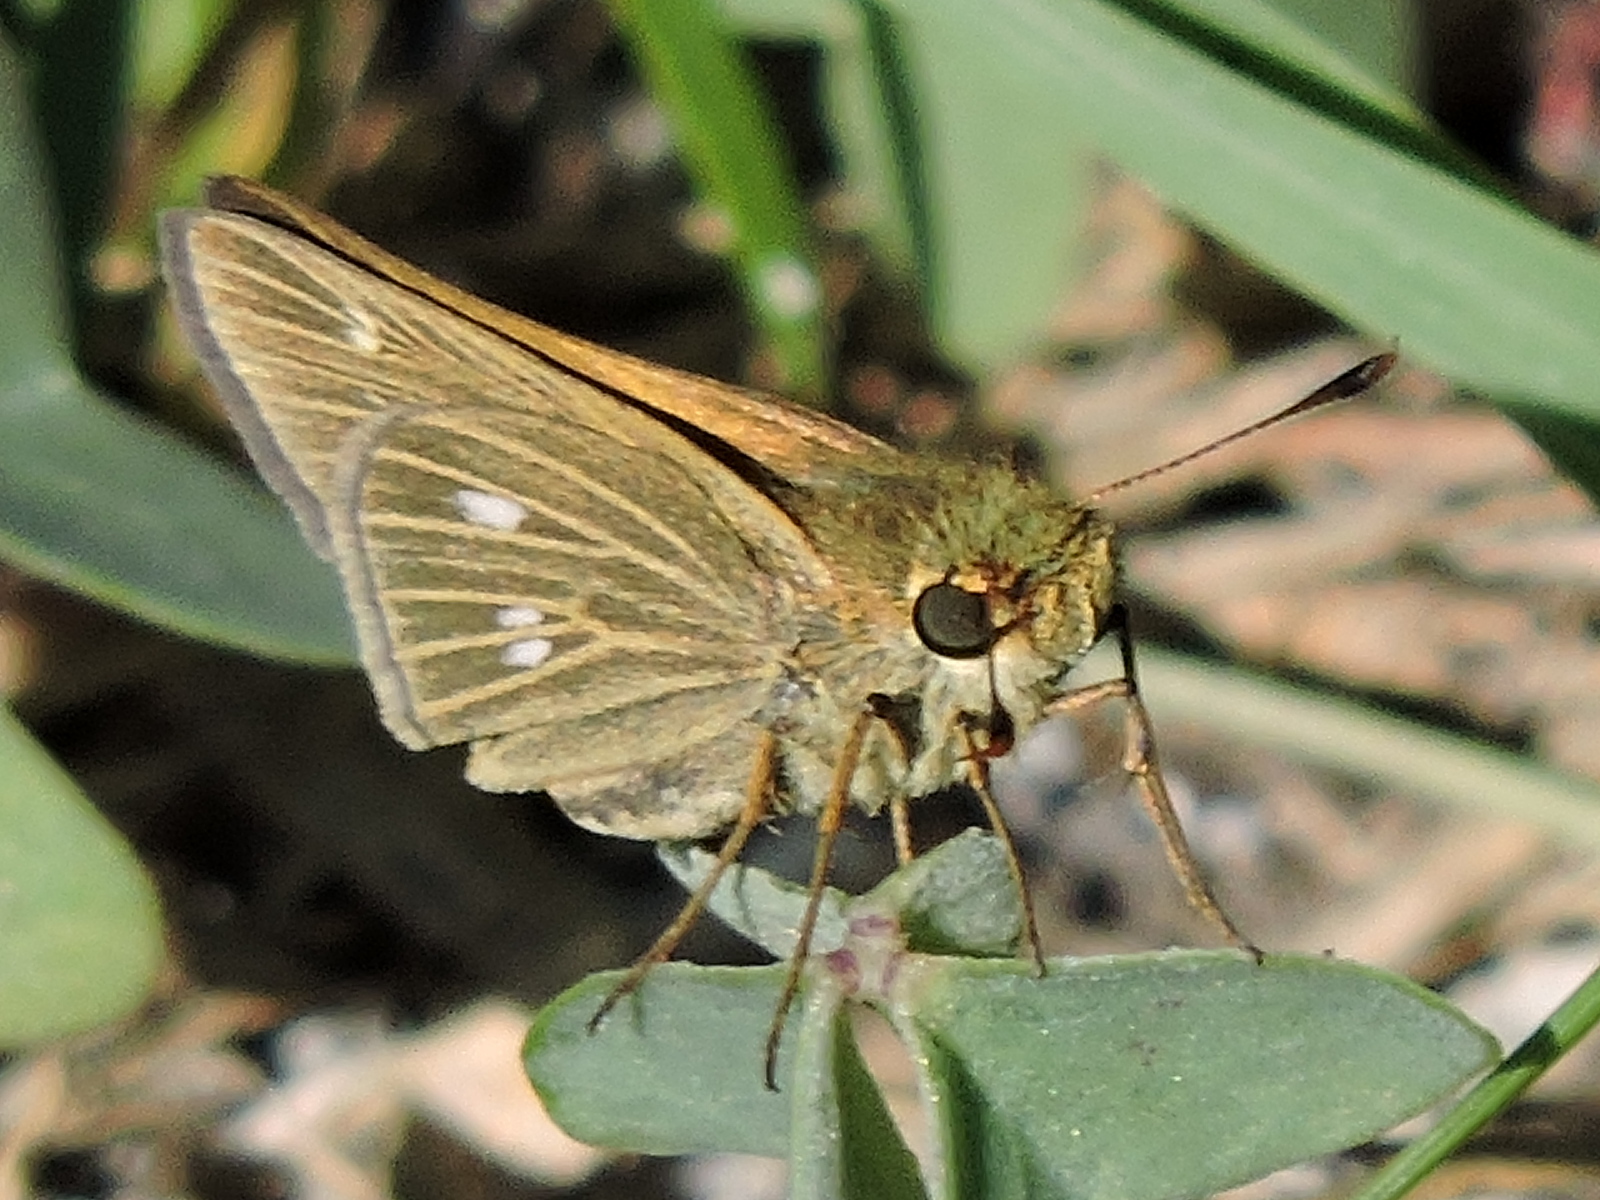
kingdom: Animalia
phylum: Arthropoda
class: Insecta
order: Lepidoptera
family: Hesperiidae
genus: Panoquina
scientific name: Panoquina panoquinoides
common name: Beach skipper
